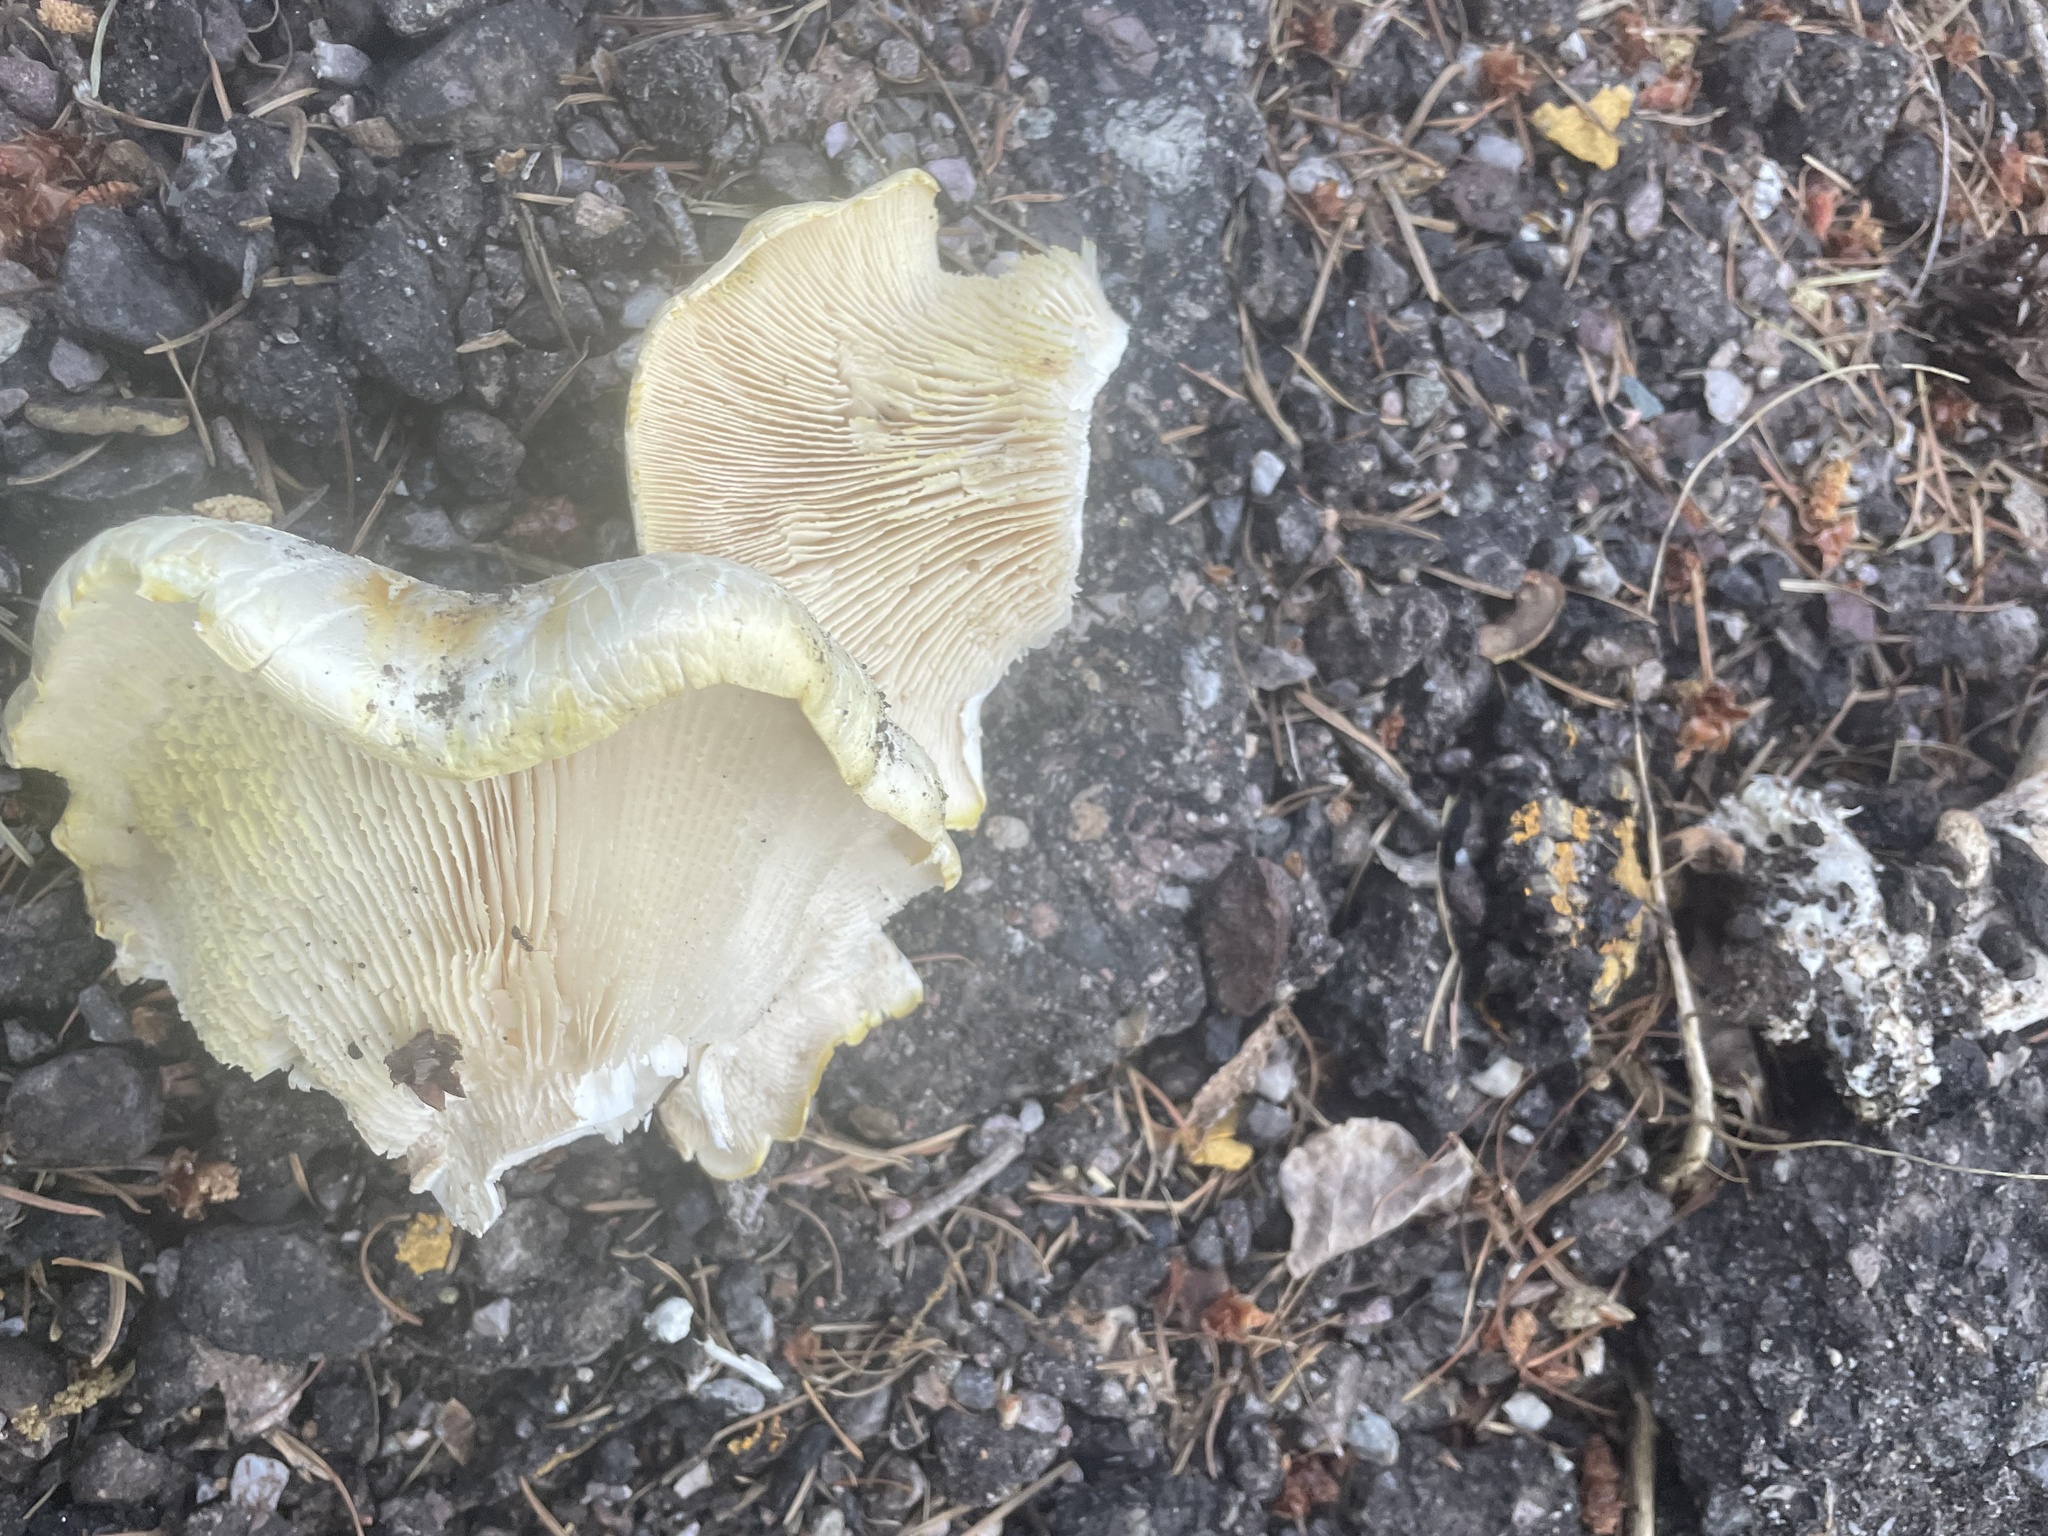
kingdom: Fungi
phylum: Basidiomycota
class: Agaricomycetes
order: Gloeophyllales
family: Gloeophyllaceae
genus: Neolentinus
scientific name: Neolentinus ponderosus
